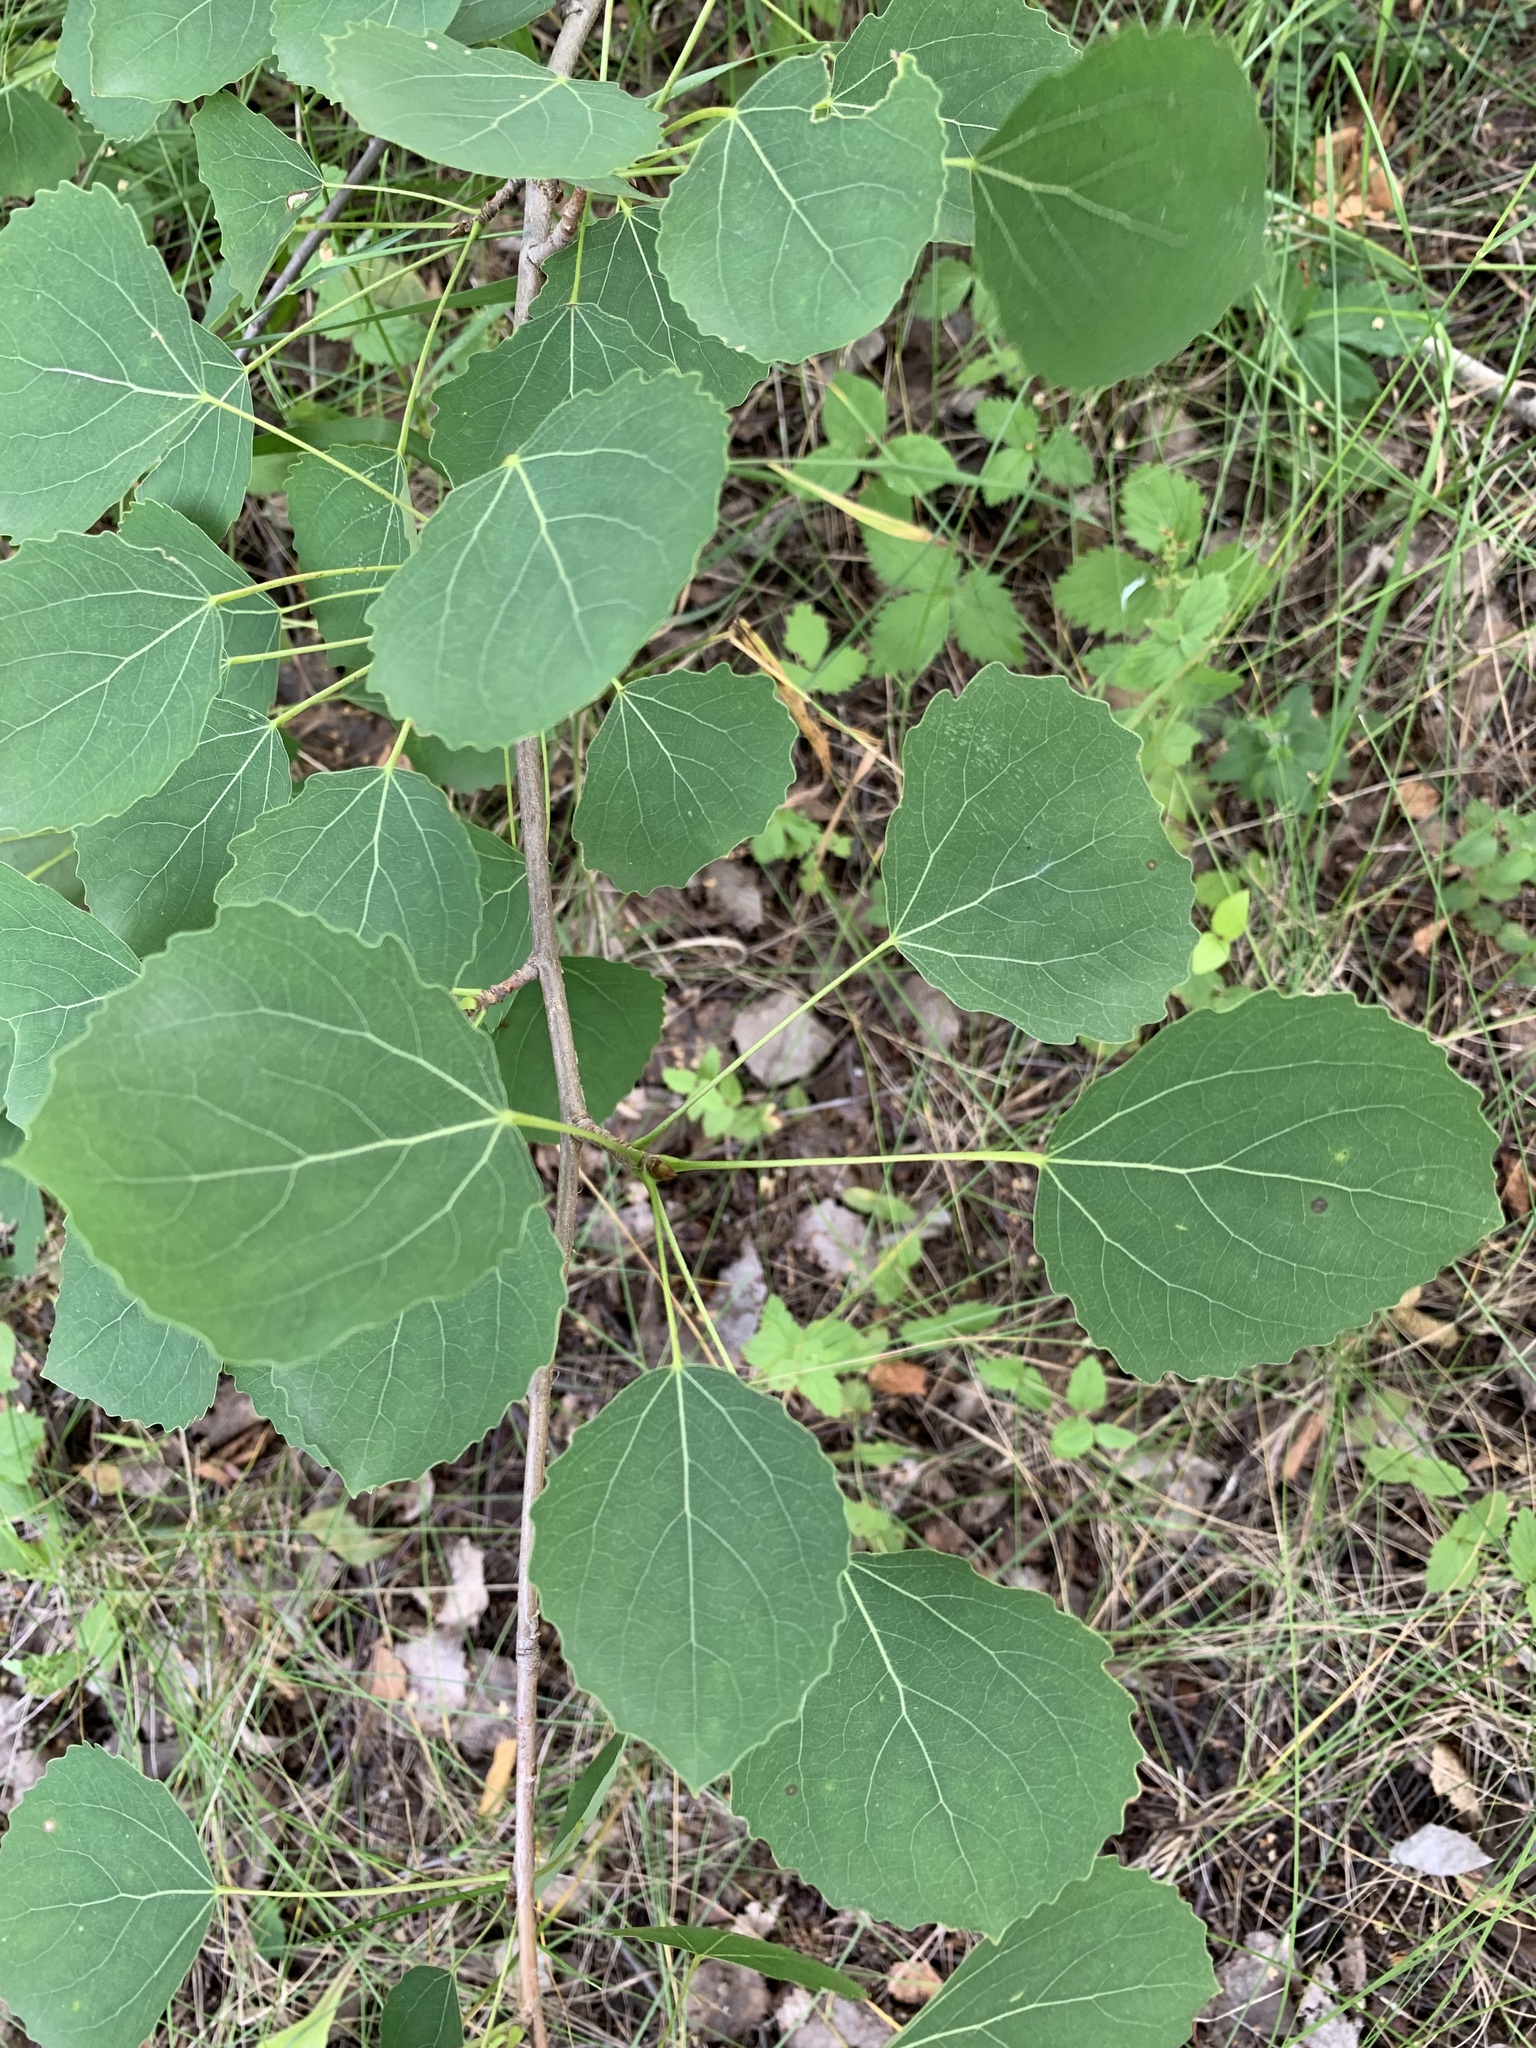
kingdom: Plantae
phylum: Tracheophyta
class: Magnoliopsida
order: Malpighiales
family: Salicaceae
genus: Populus
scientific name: Populus tremula
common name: European aspen
